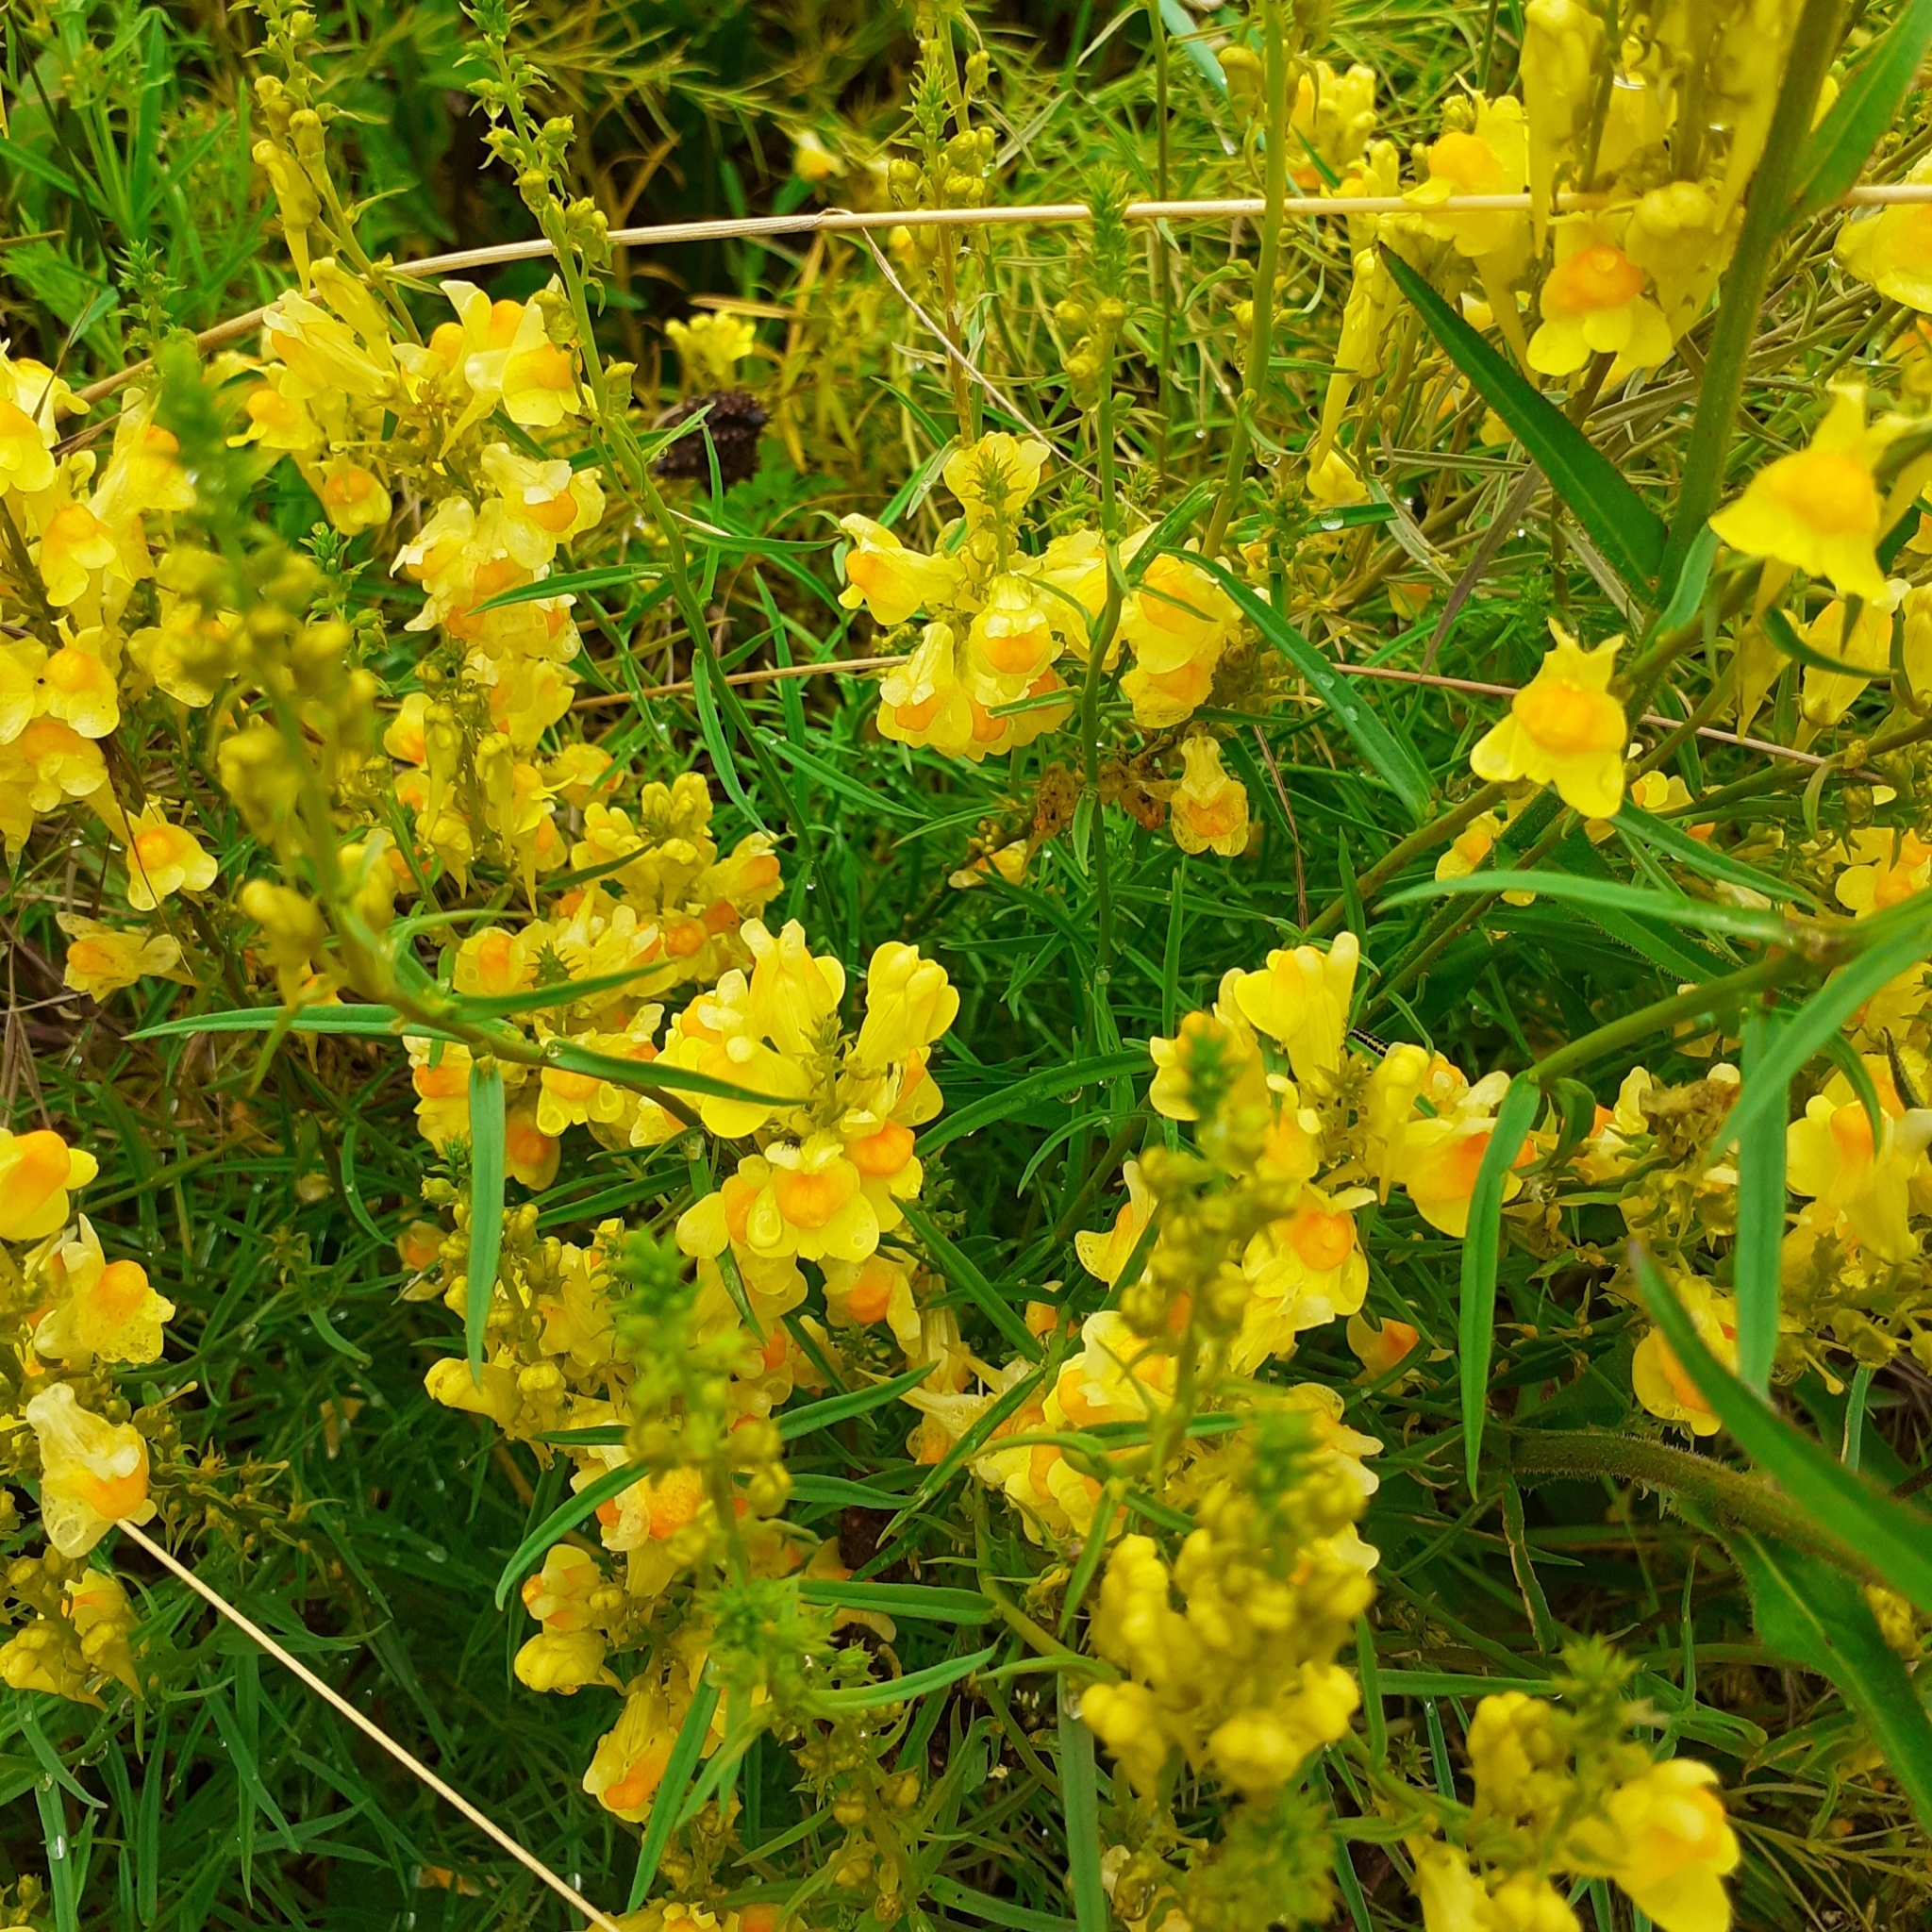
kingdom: Plantae
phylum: Tracheophyta
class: Magnoliopsida
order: Lamiales
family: Plantaginaceae
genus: Linaria
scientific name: Linaria vulgaris
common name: Butter and eggs
